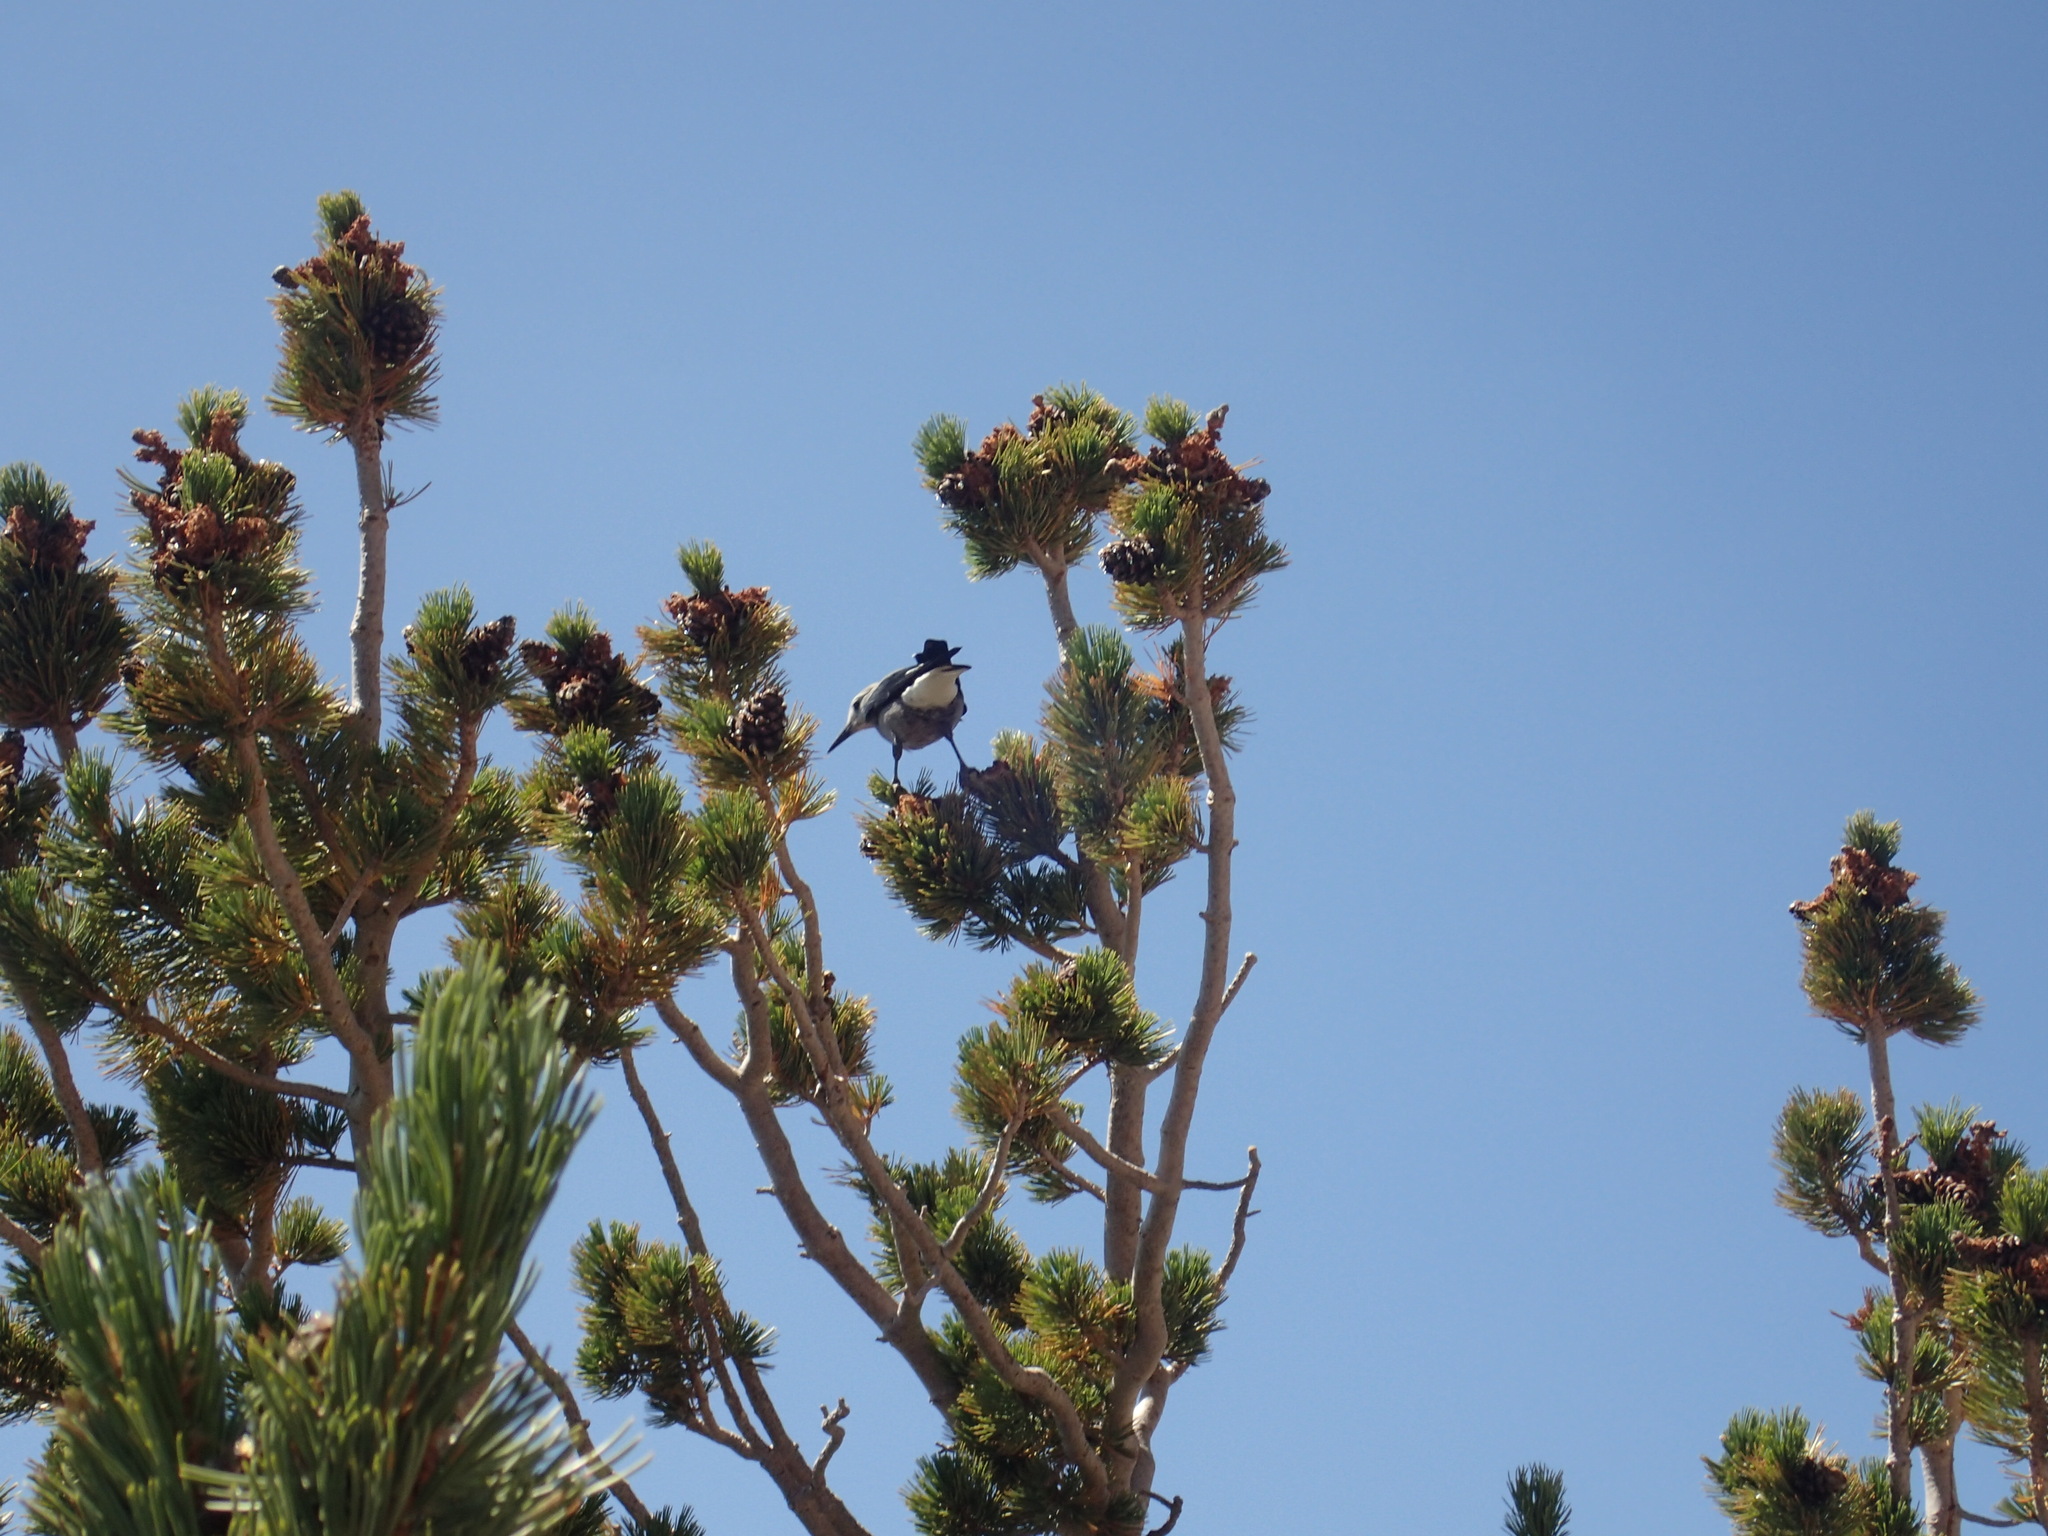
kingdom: Animalia
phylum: Chordata
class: Aves
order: Passeriformes
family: Corvidae
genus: Nucifraga
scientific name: Nucifraga columbiana
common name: Clark's nutcracker
